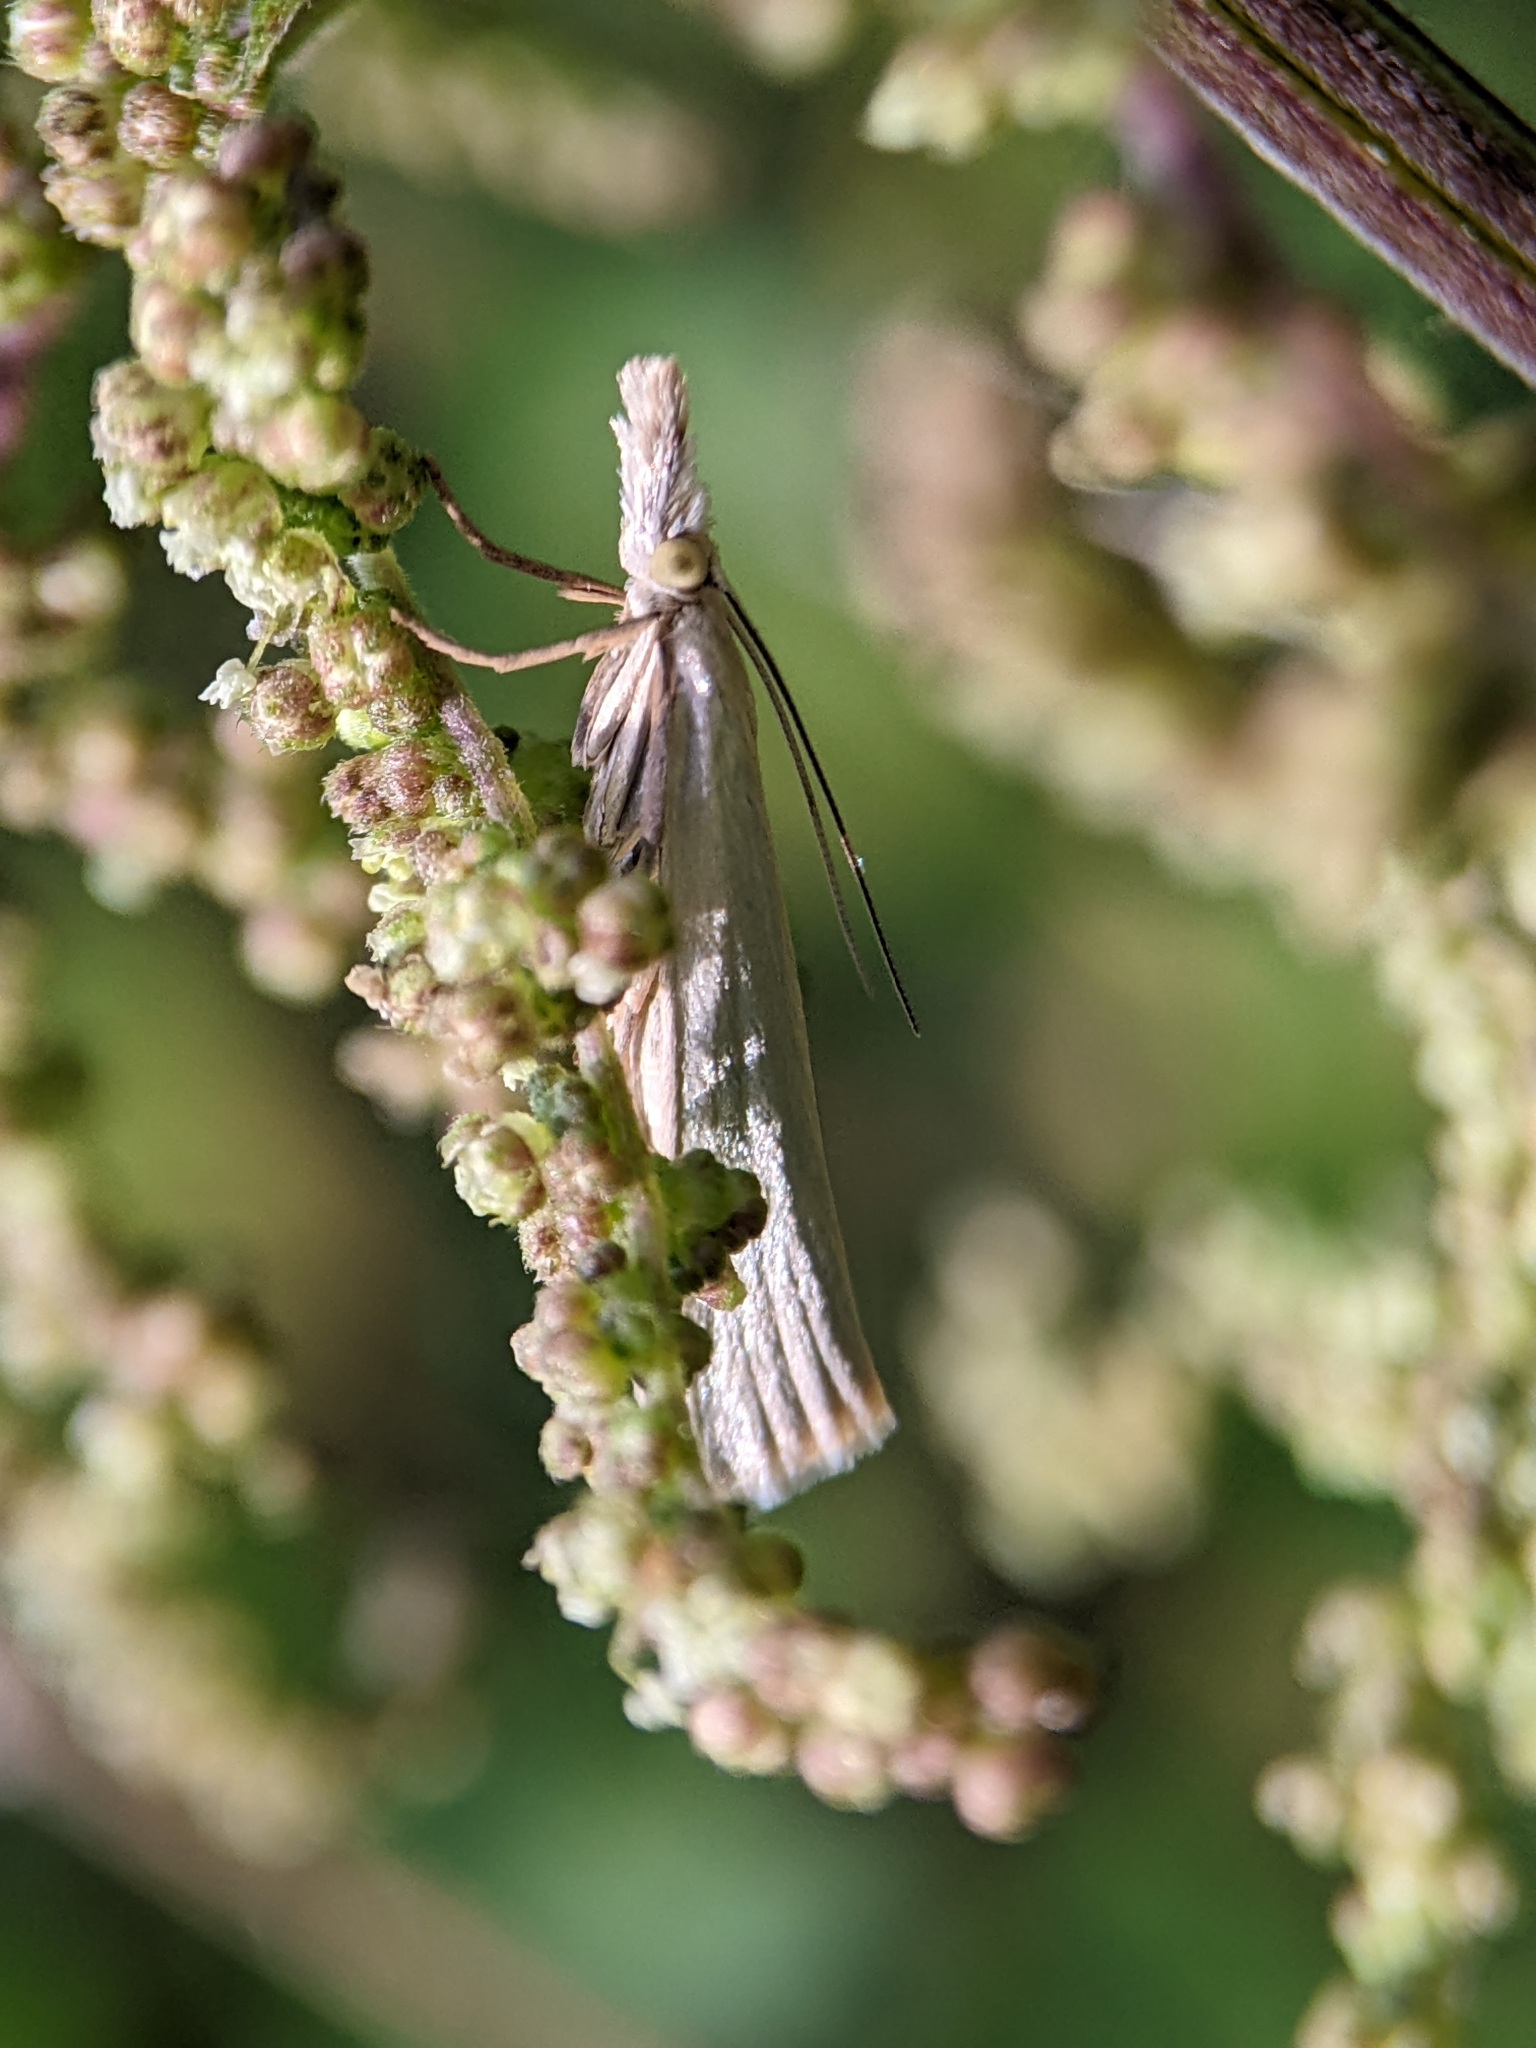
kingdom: Animalia
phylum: Arthropoda
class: Insecta
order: Lepidoptera
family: Crambidae
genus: Crambus
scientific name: Crambus perlellus
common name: Yellow satin veneer
